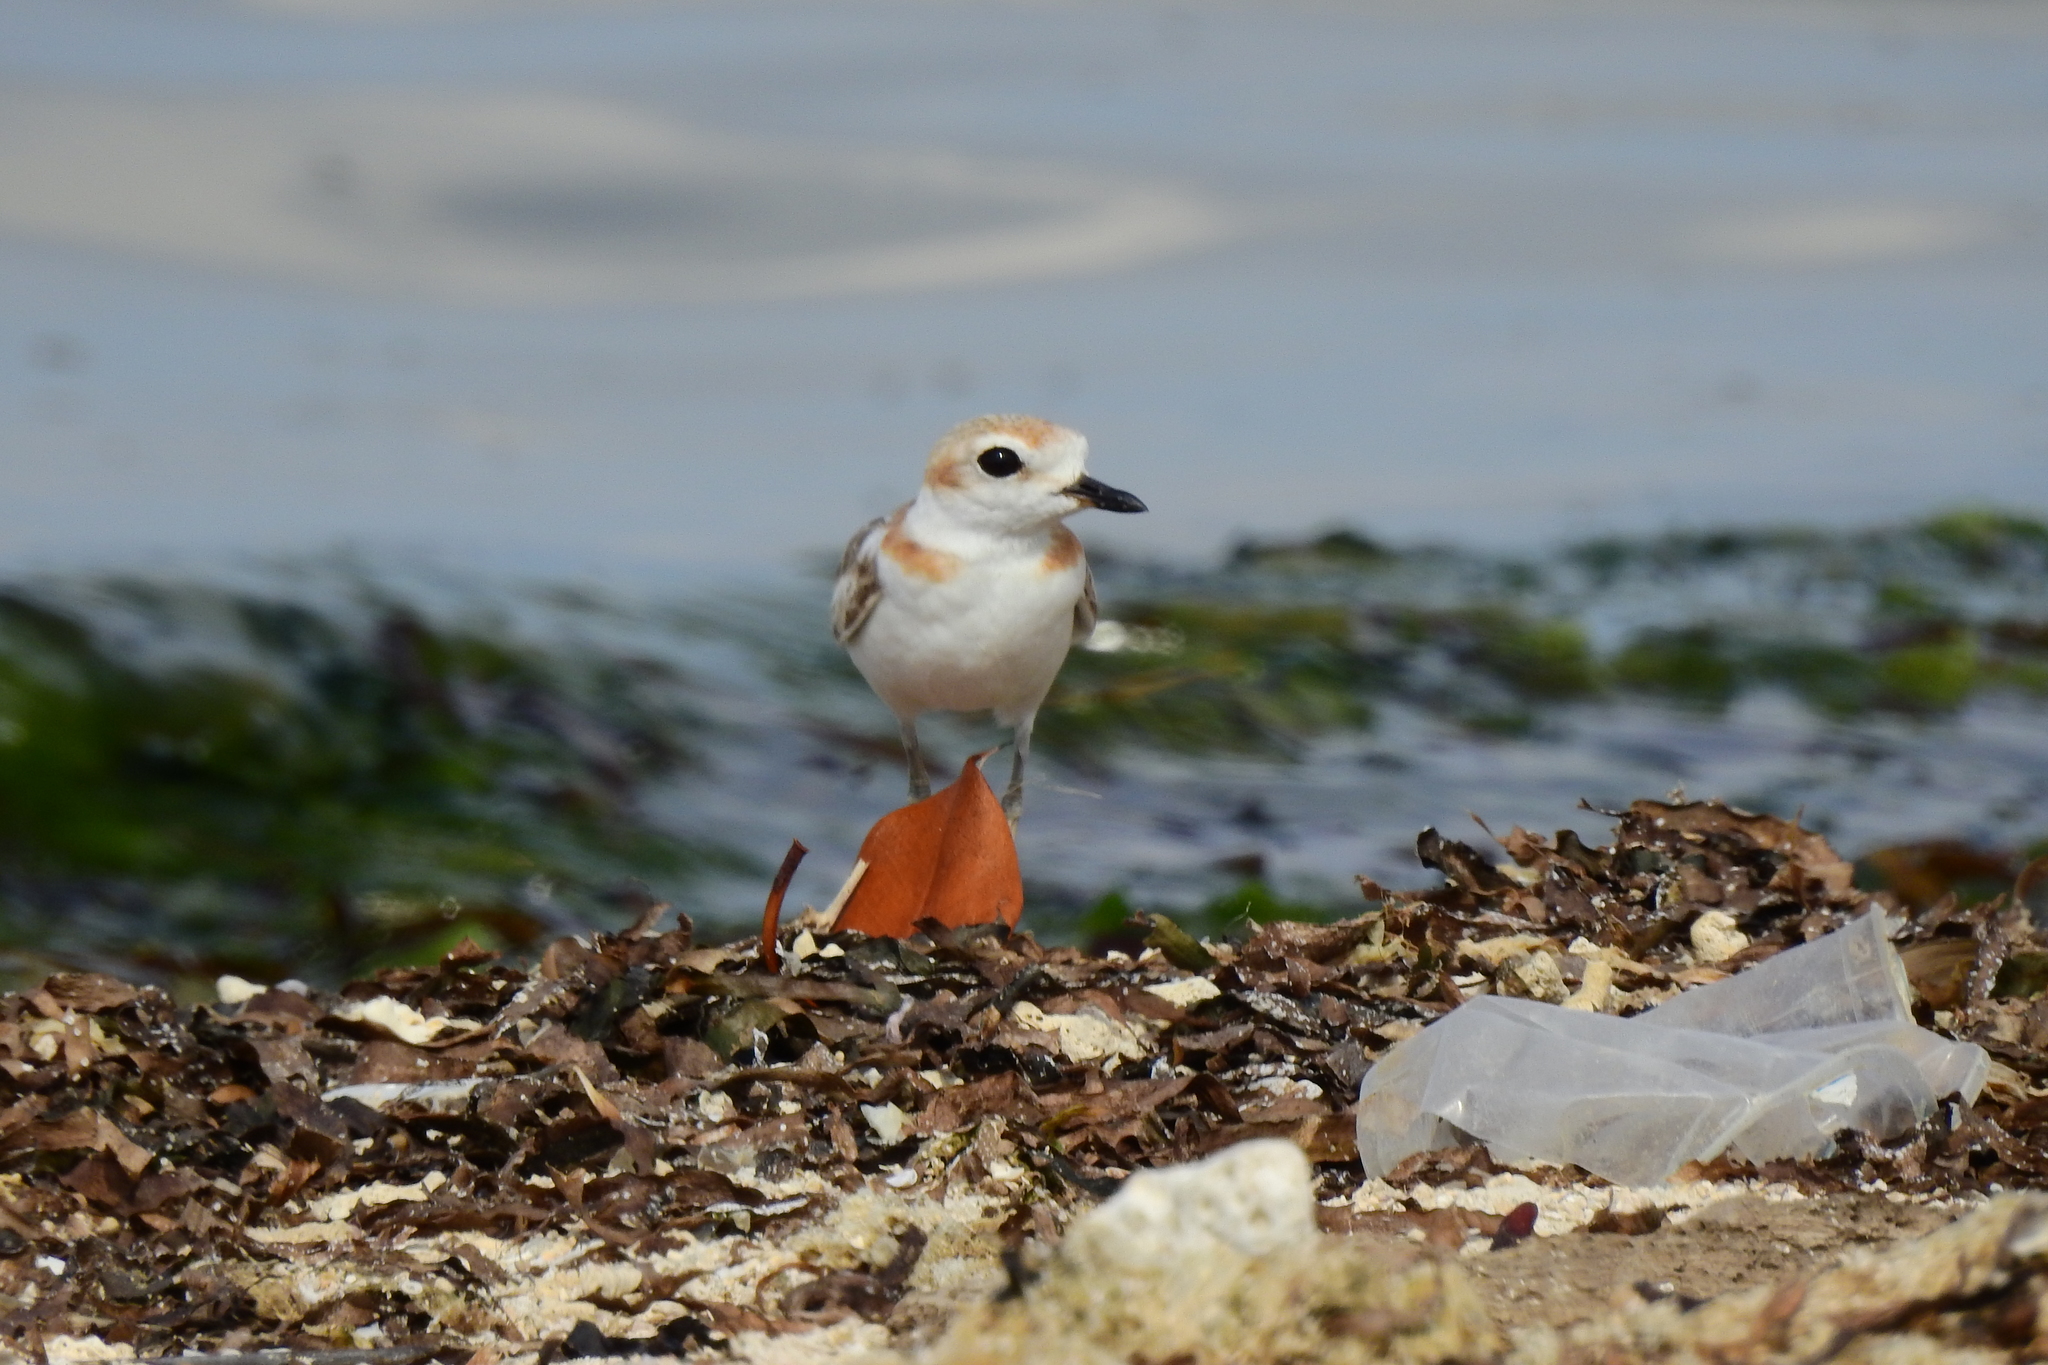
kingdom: Animalia
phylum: Chordata
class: Aves
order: Charadriiformes
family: Charadriidae
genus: Anarhynchus
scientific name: Anarhynchus
